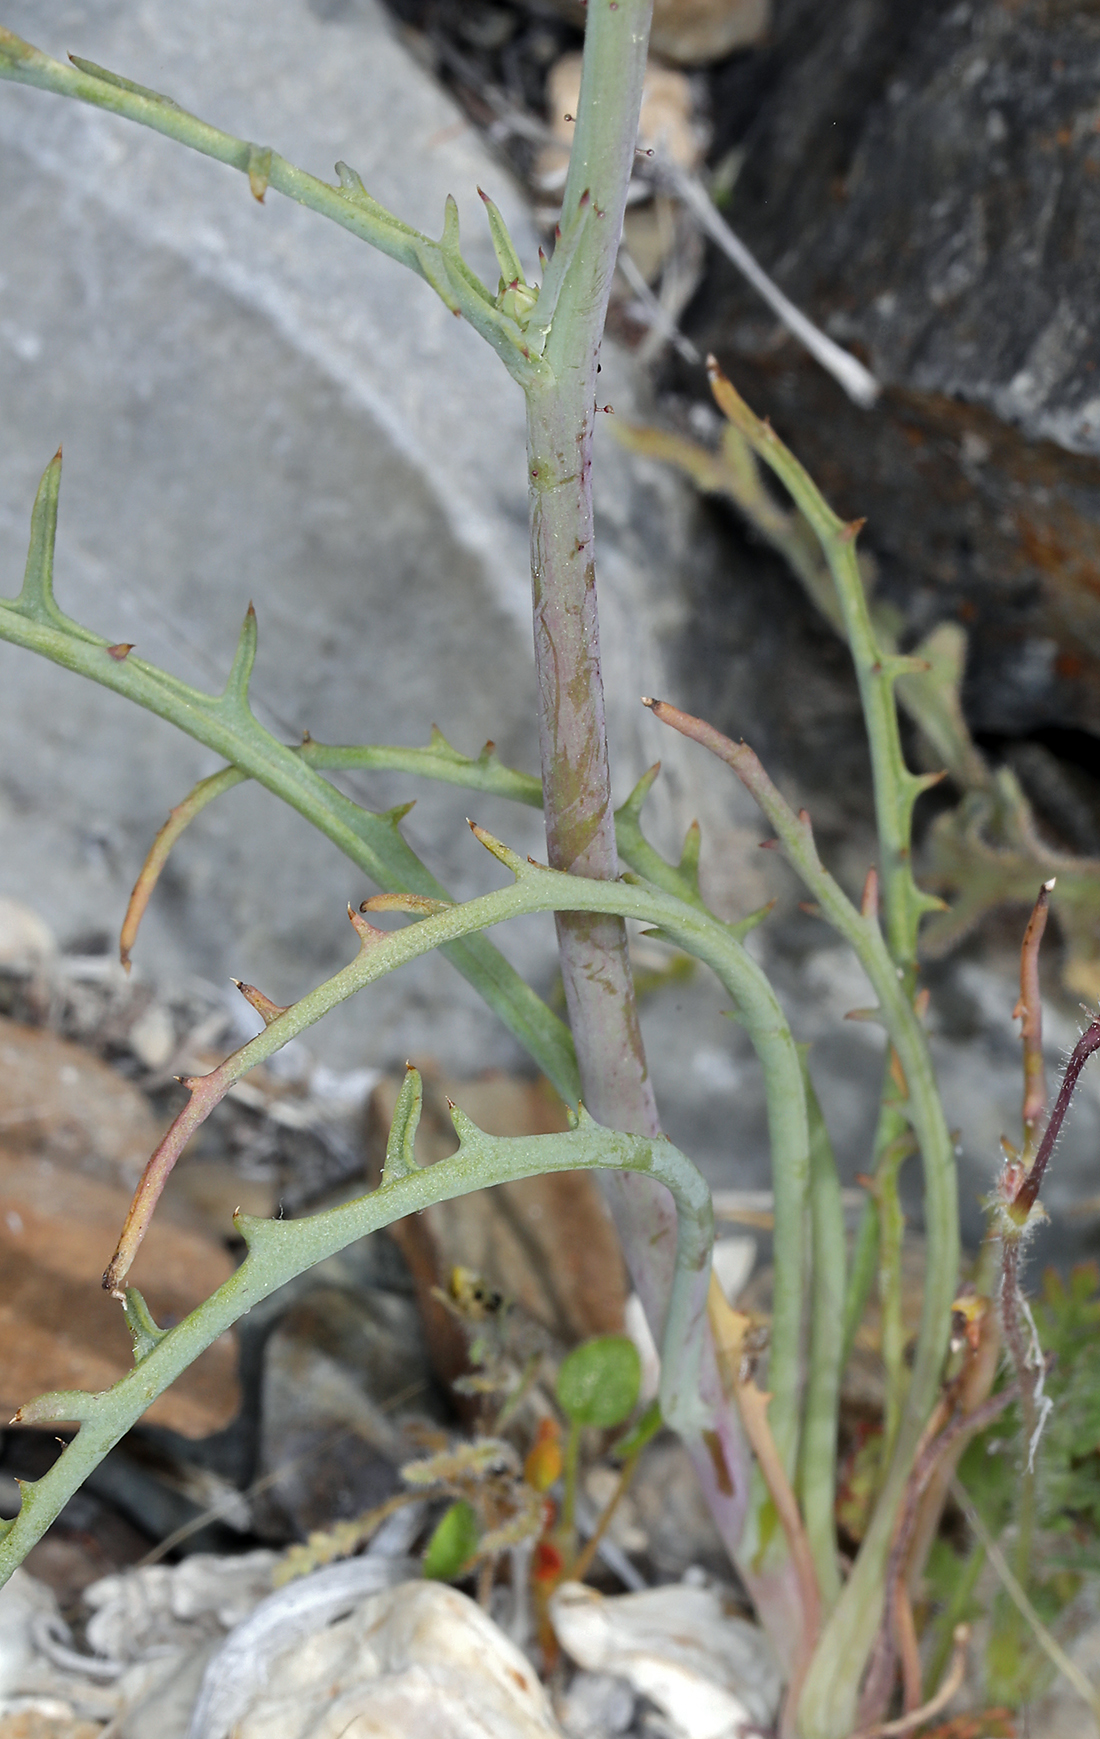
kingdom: Plantae
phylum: Tracheophyta
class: Magnoliopsida
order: Asterales
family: Asteraceae
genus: Calycoseris
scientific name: Calycoseris parryi
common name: Yellow tackstem
